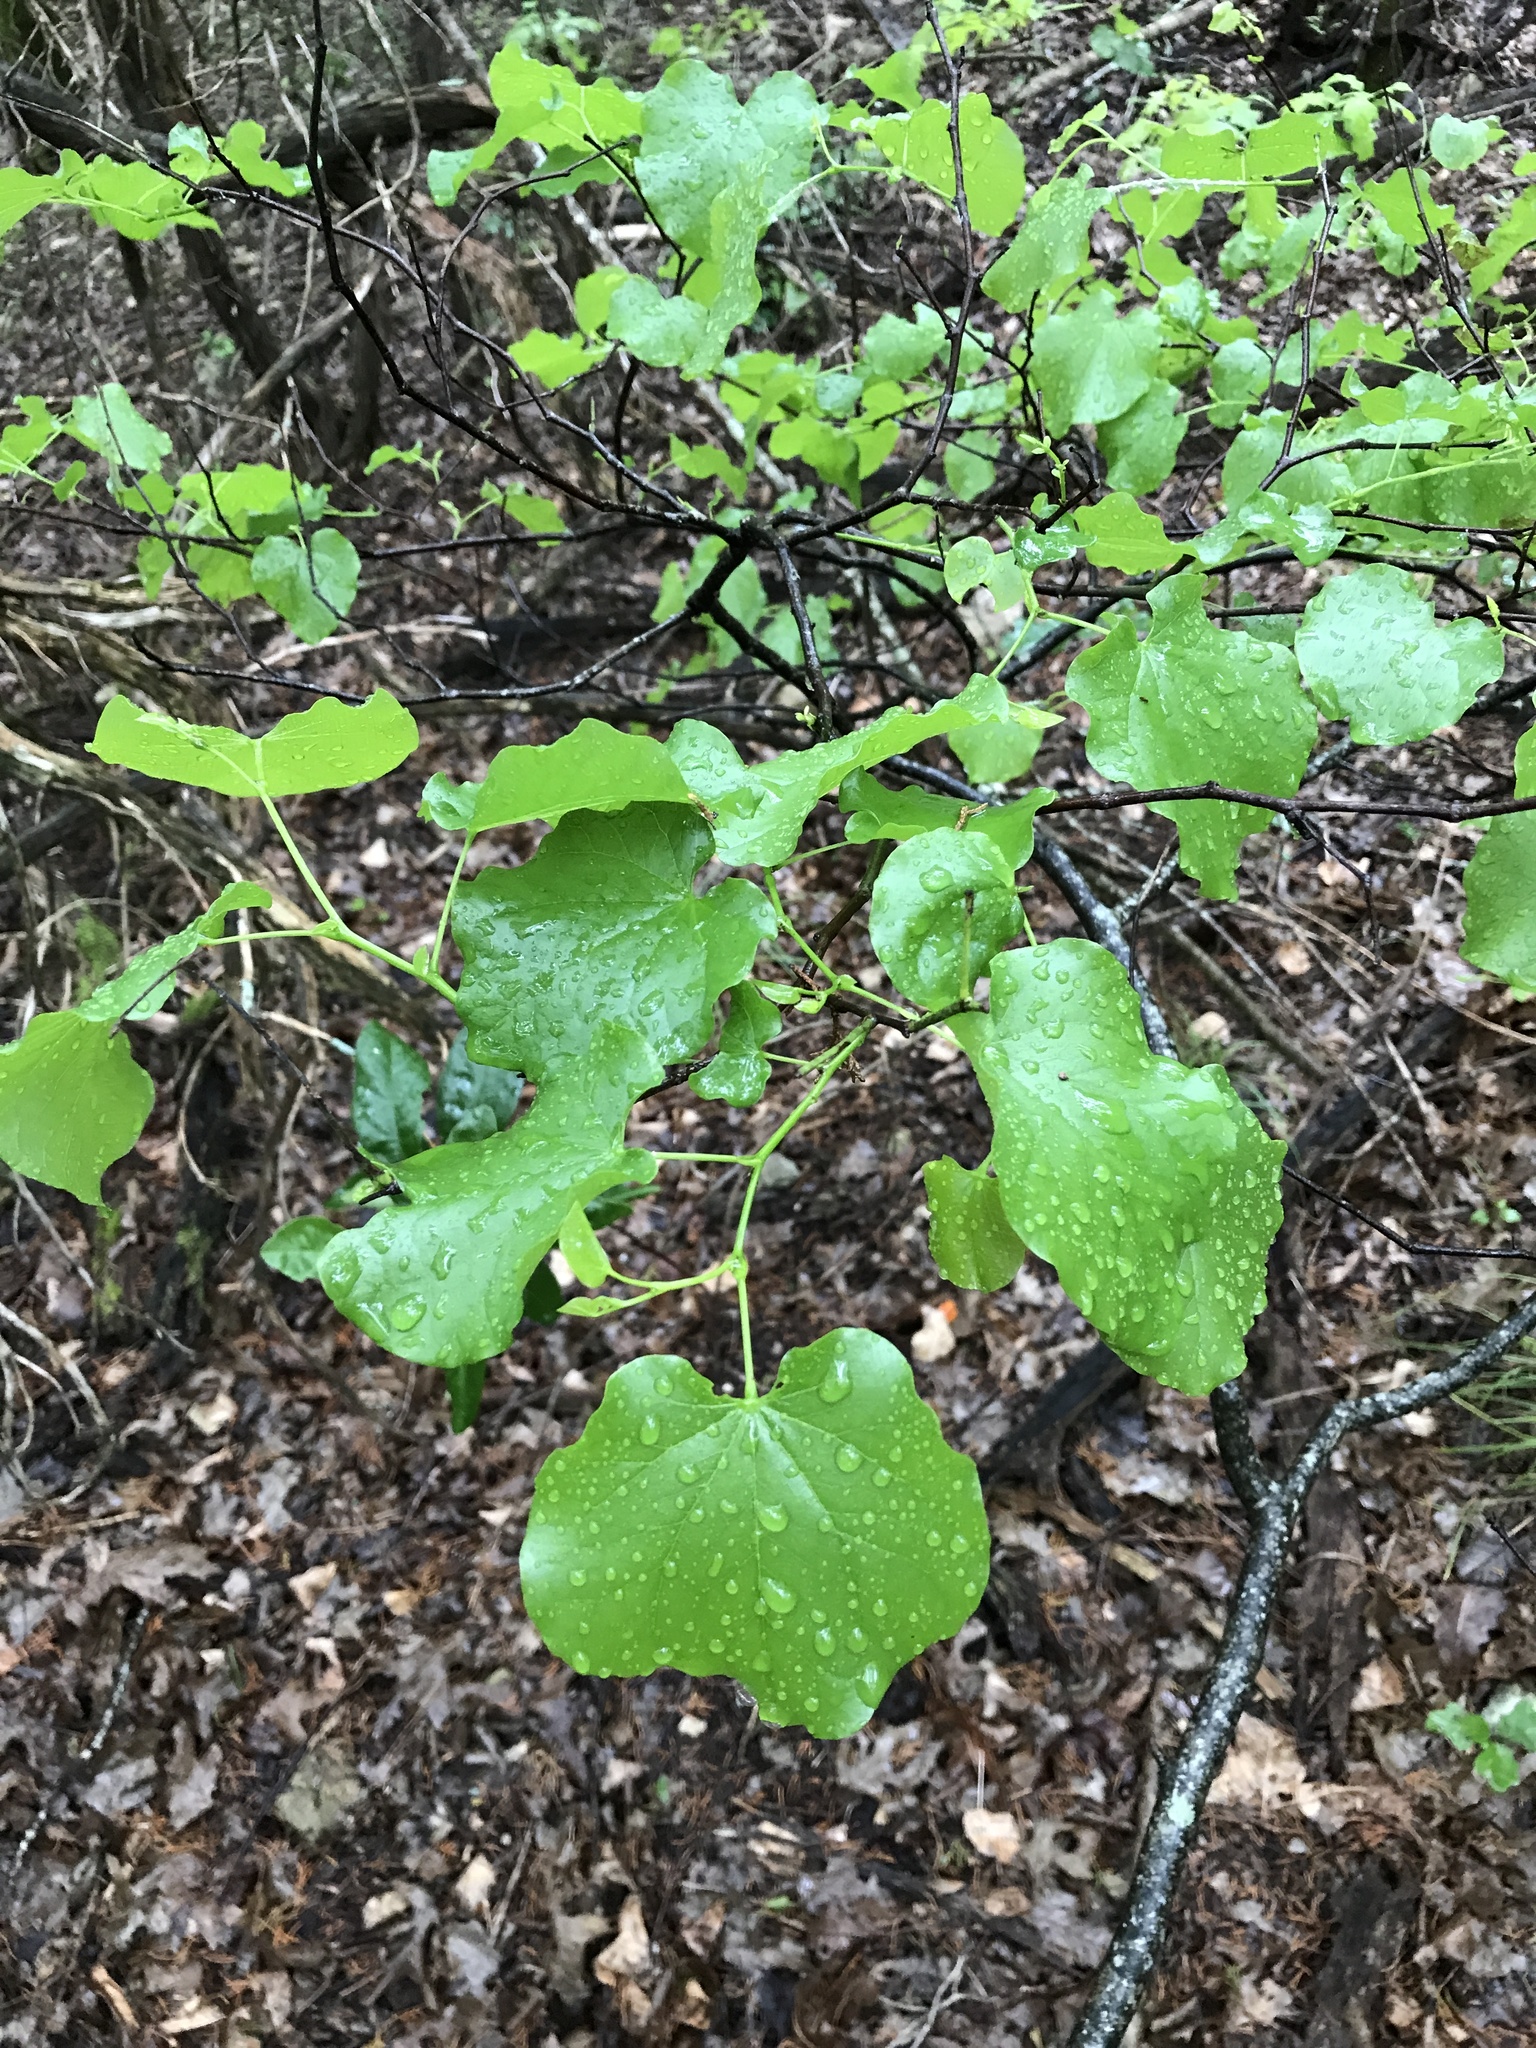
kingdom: Plantae
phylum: Tracheophyta
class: Magnoliopsida
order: Fabales
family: Fabaceae
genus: Cercis
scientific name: Cercis canadensis
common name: Eastern redbud
